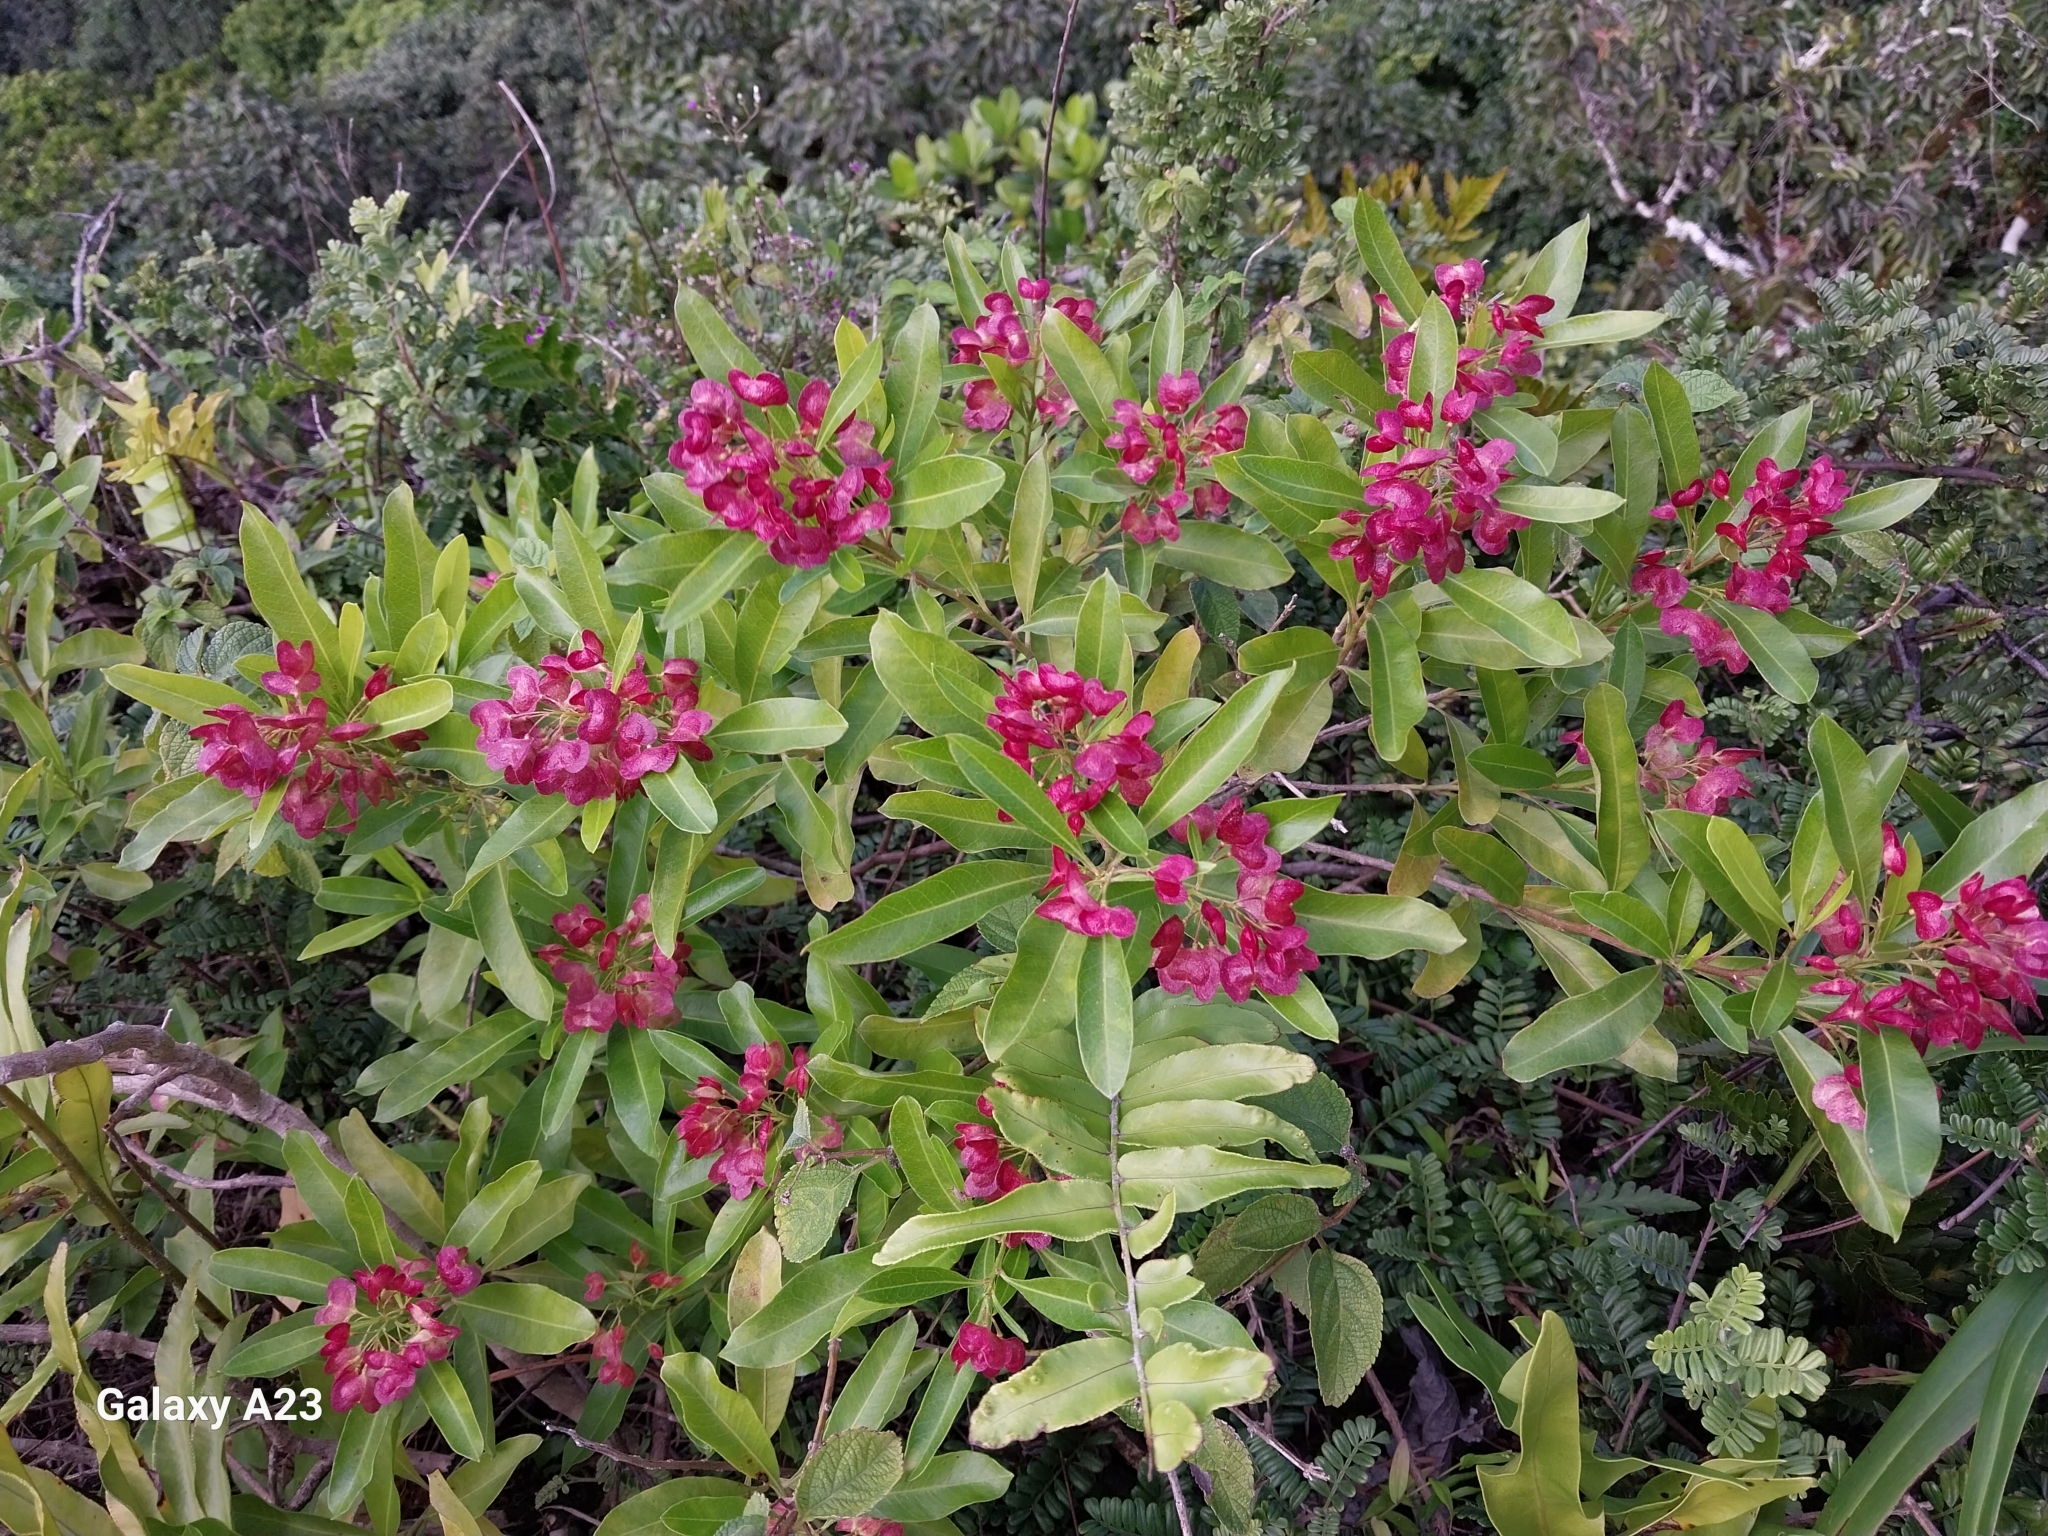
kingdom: Plantae
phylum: Tracheophyta
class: Magnoliopsida
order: Sapindales
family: Sapindaceae
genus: Dodonaea
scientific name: Dodonaea viscosa
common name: Hopbush
